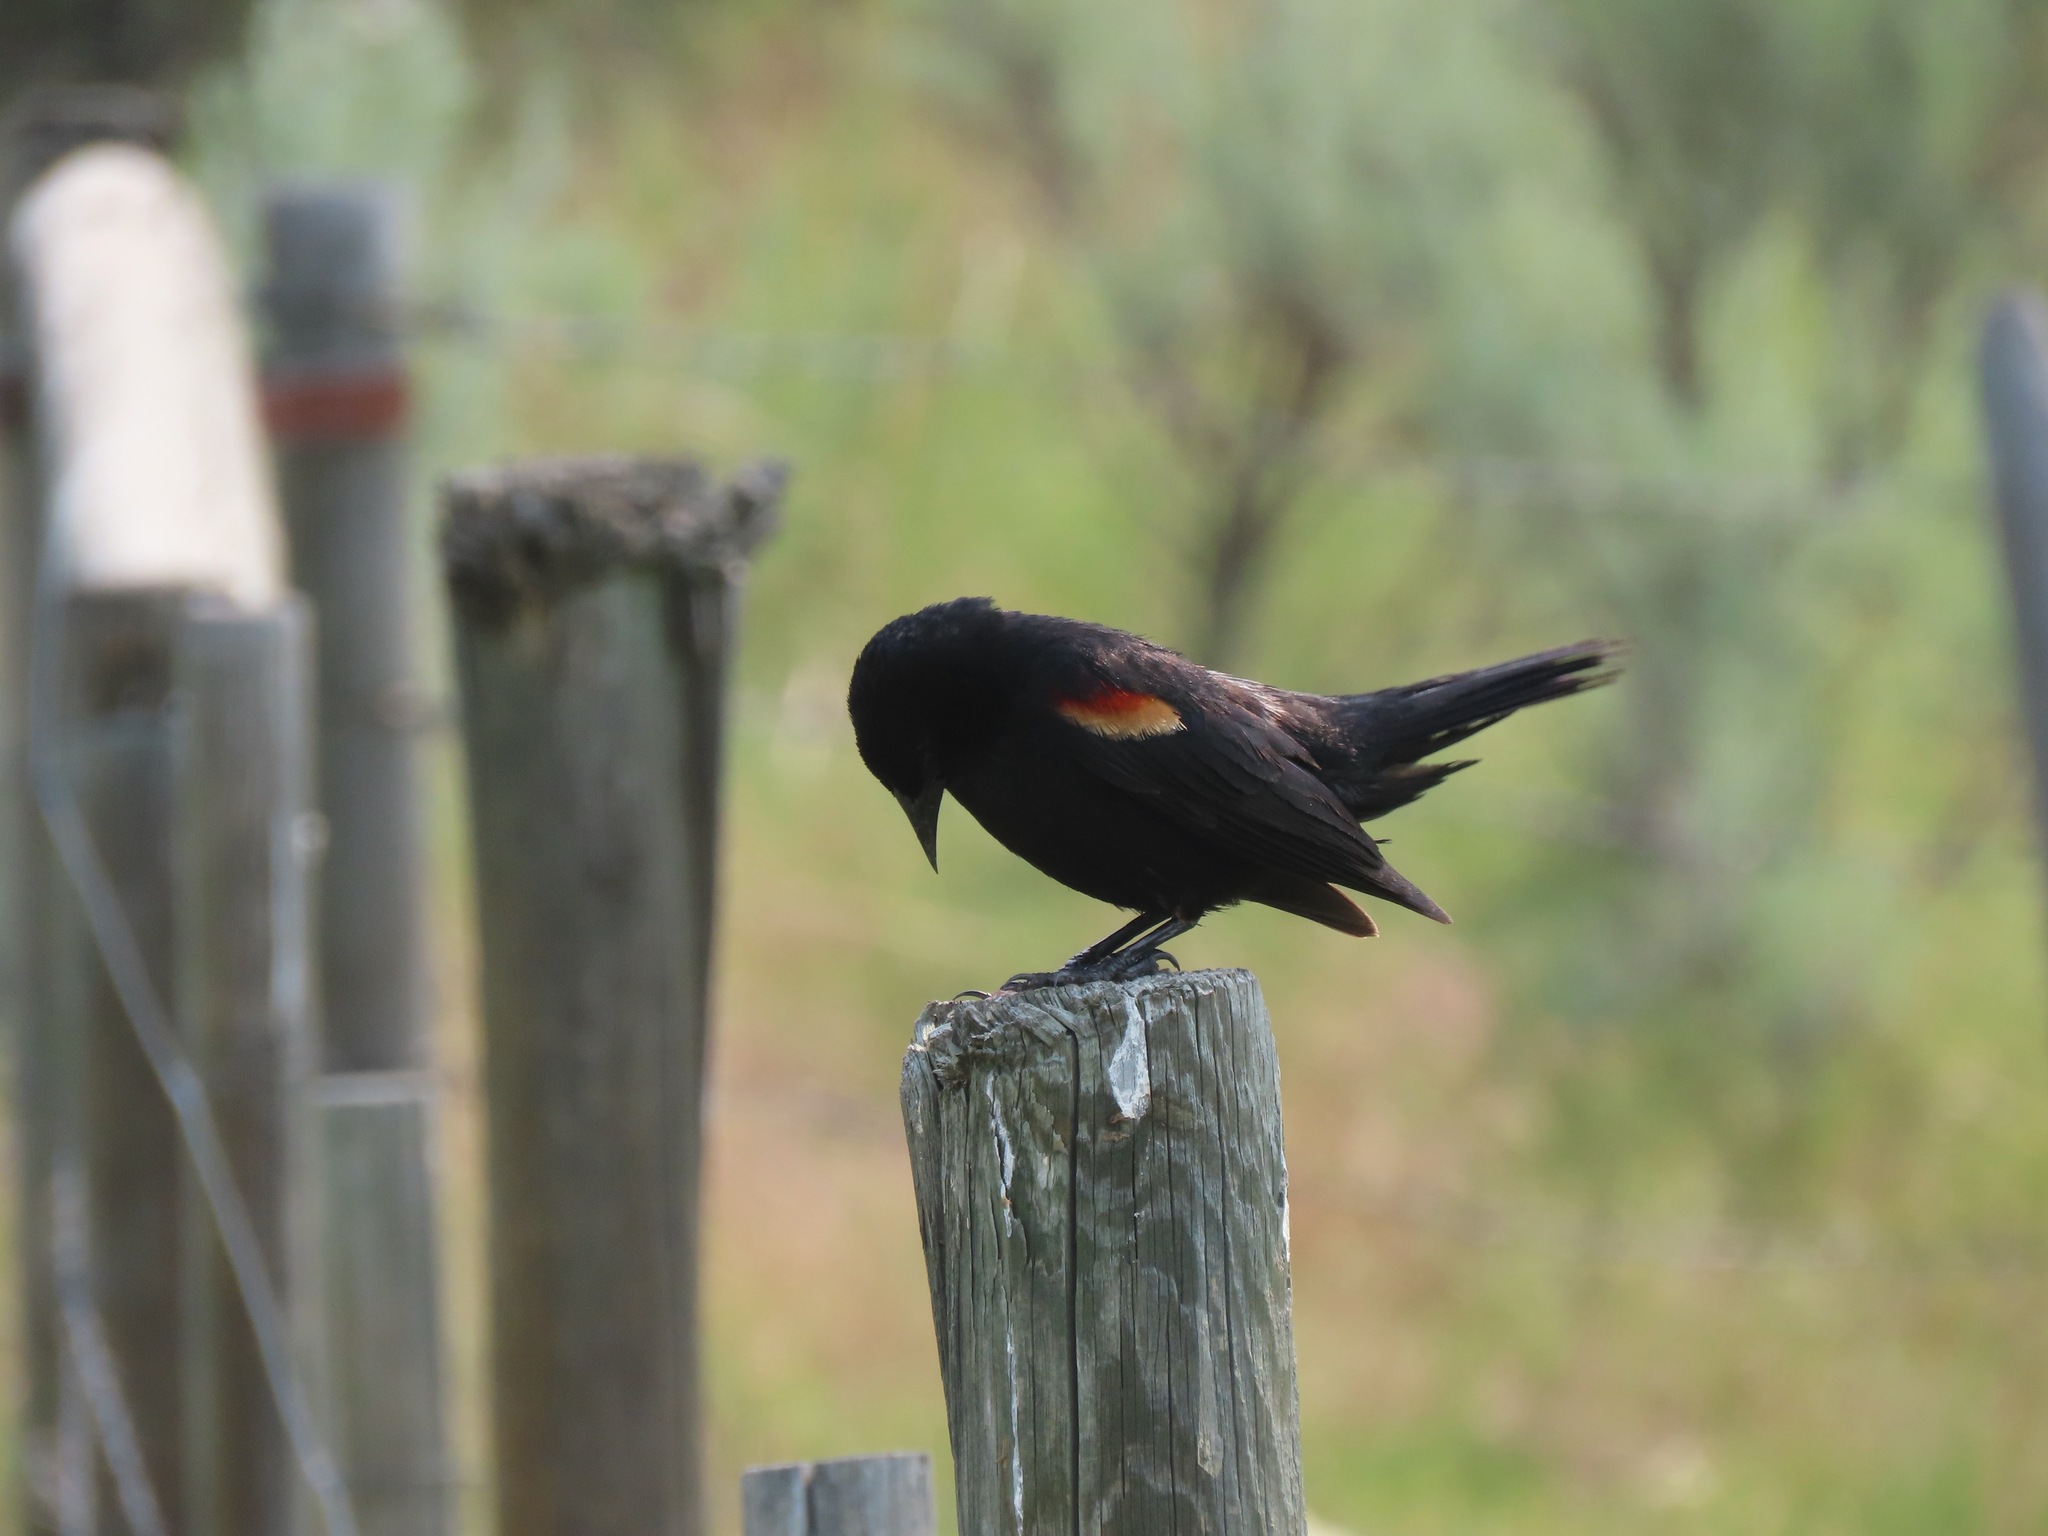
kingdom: Animalia
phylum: Chordata
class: Aves
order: Passeriformes
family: Icteridae
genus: Agelaius
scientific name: Agelaius phoeniceus
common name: Red-winged blackbird
